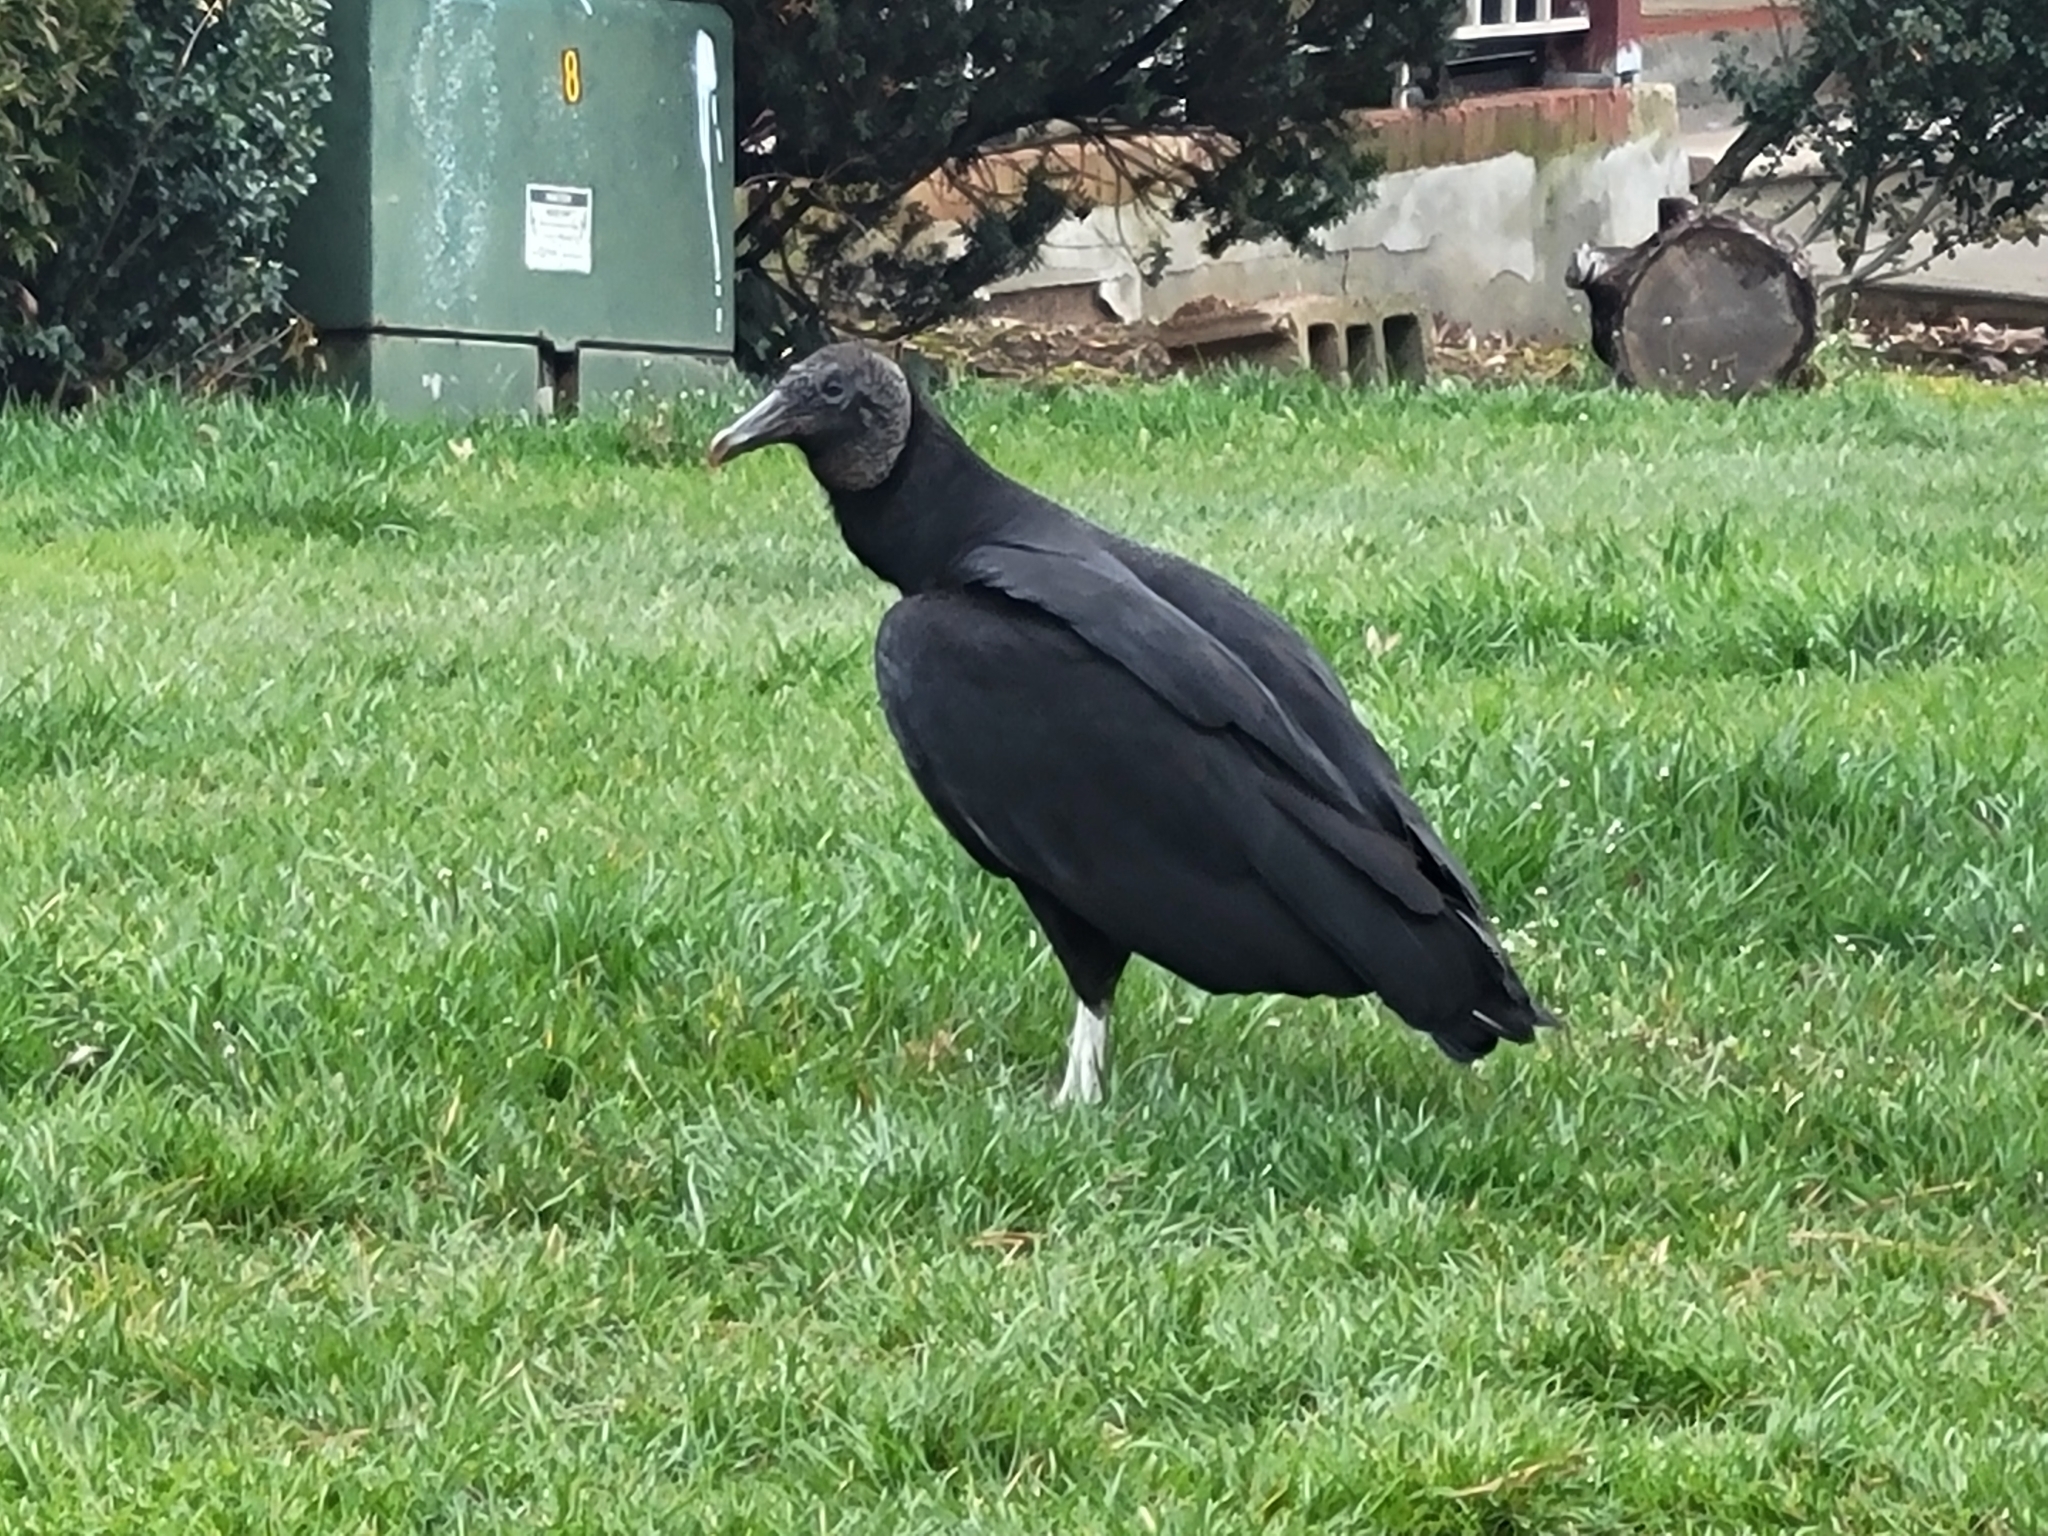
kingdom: Animalia
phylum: Chordata
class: Aves
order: Accipitriformes
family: Cathartidae
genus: Coragyps
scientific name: Coragyps atratus
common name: Black vulture
